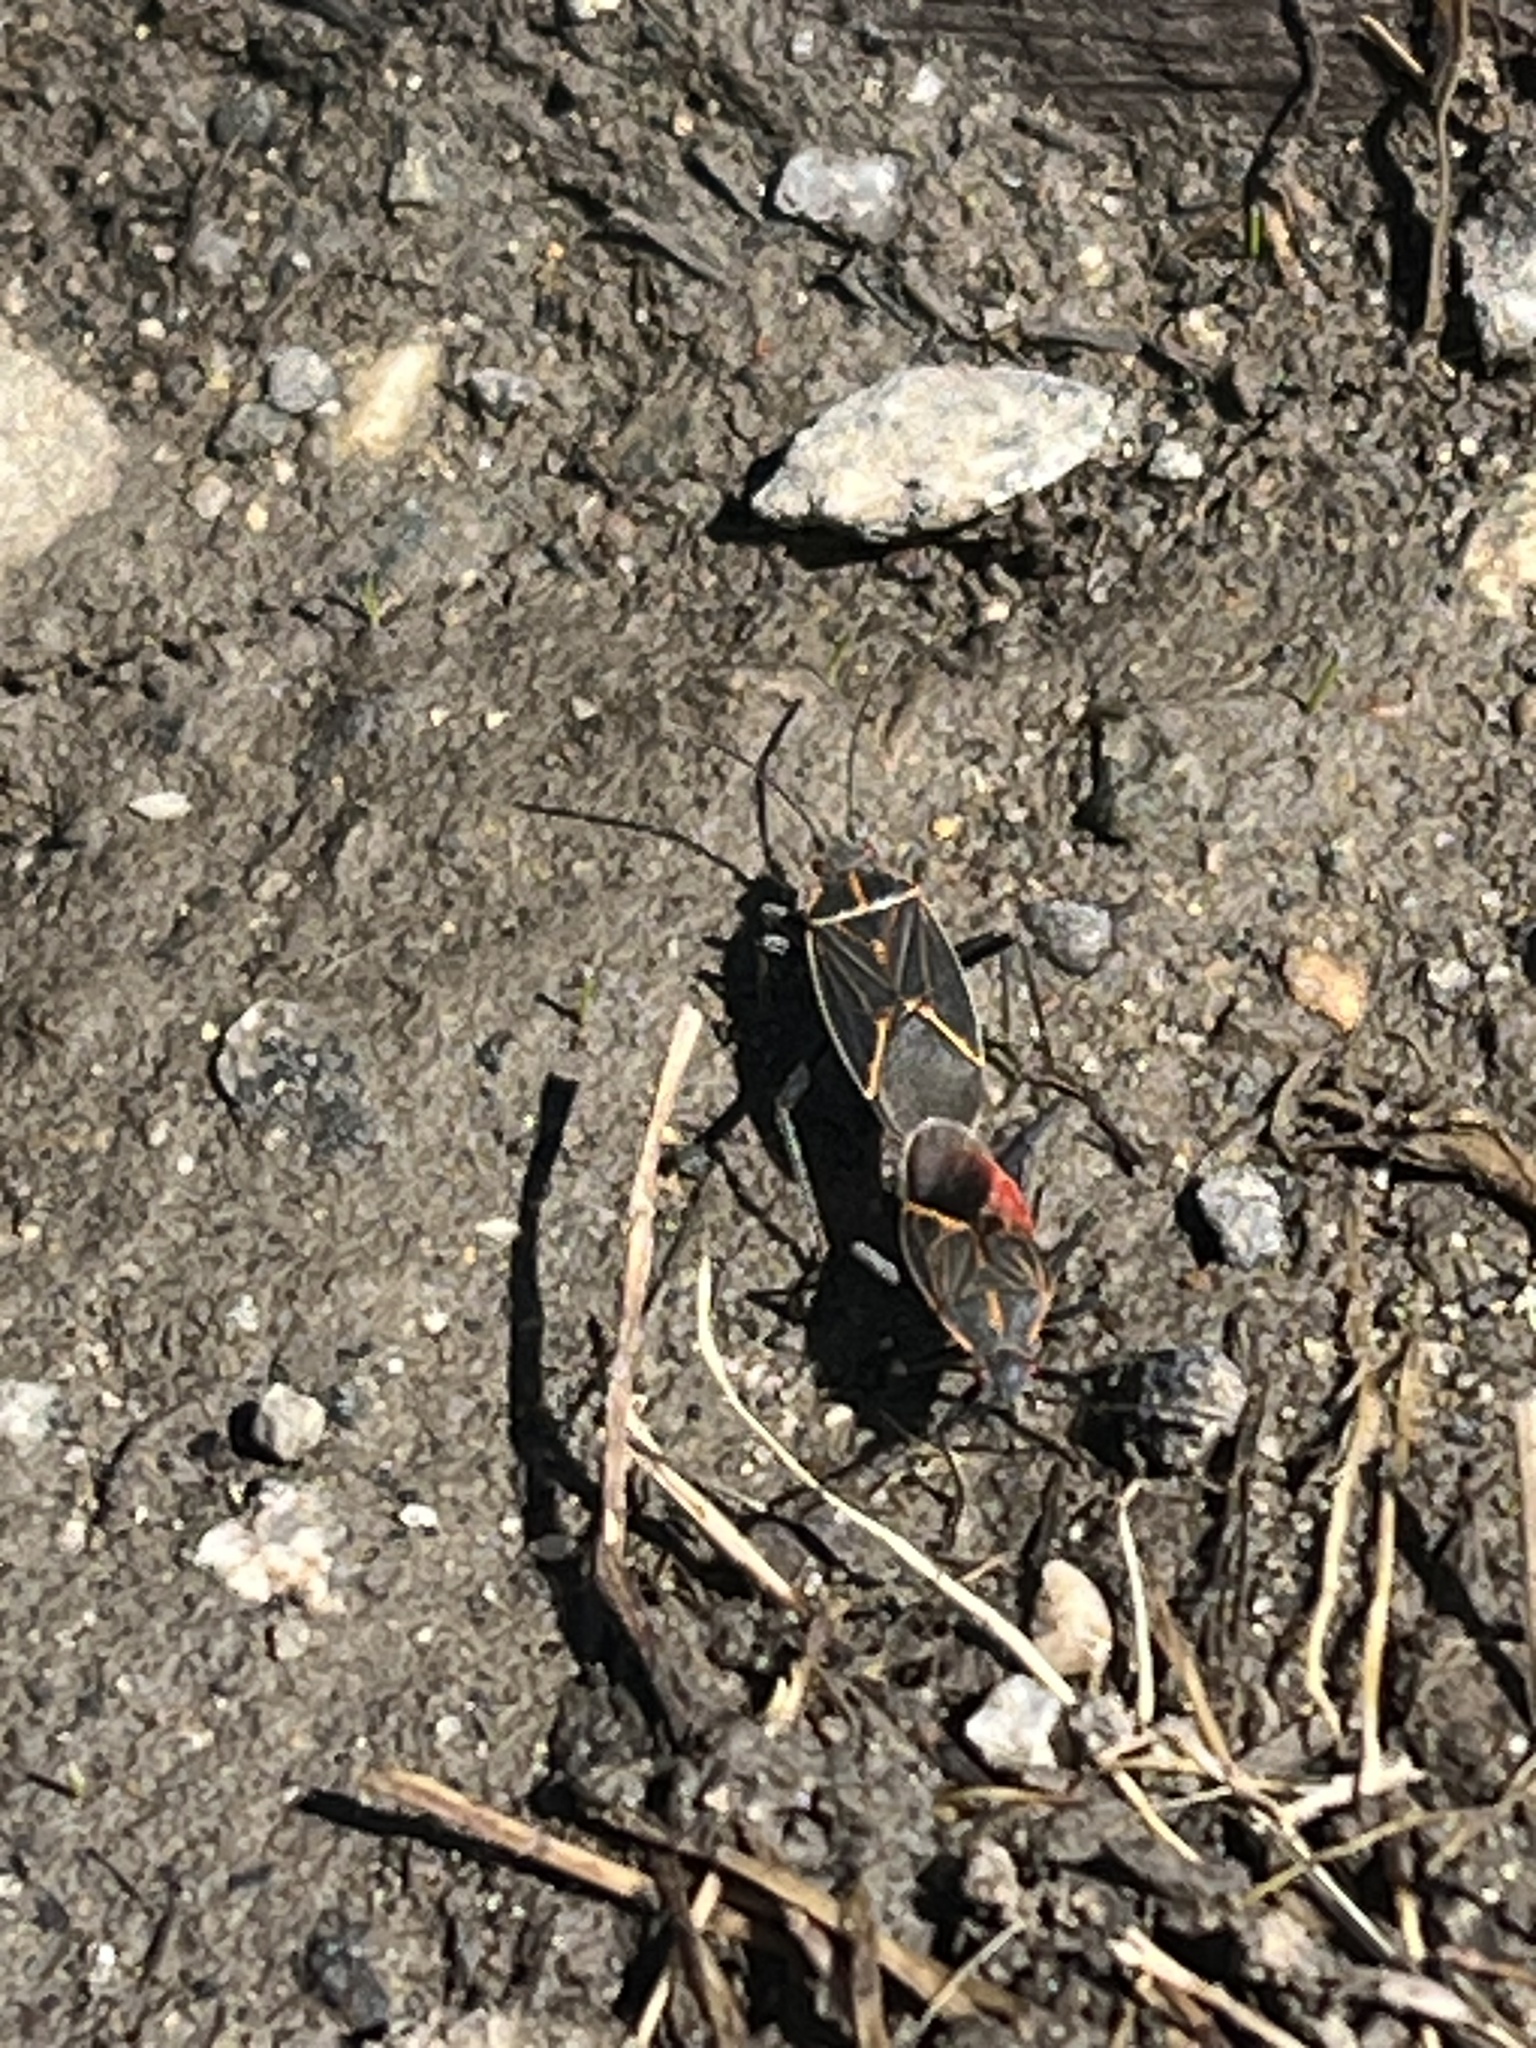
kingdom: Animalia
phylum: Arthropoda
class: Insecta
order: Hemiptera
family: Rhopalidae
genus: Boisea
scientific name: Boisea rubrolineata
